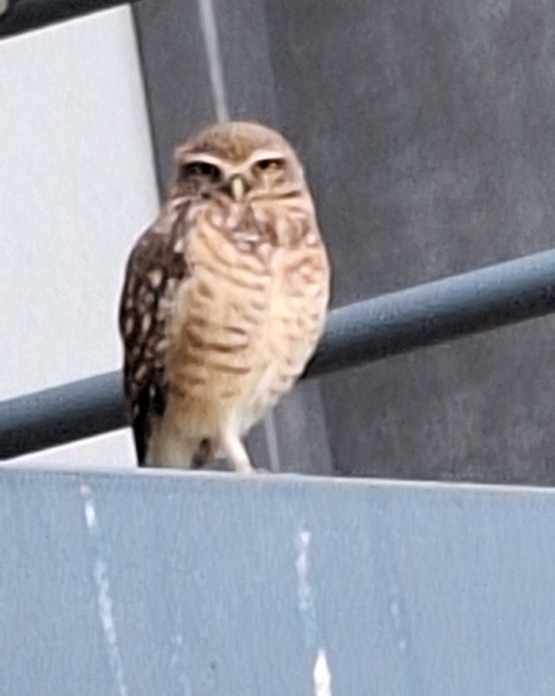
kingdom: Animalia
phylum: Chordata
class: Aves
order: Strigiformes
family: Strigidae
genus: Athene
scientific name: Athene cunicularia
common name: Burrowing owl
